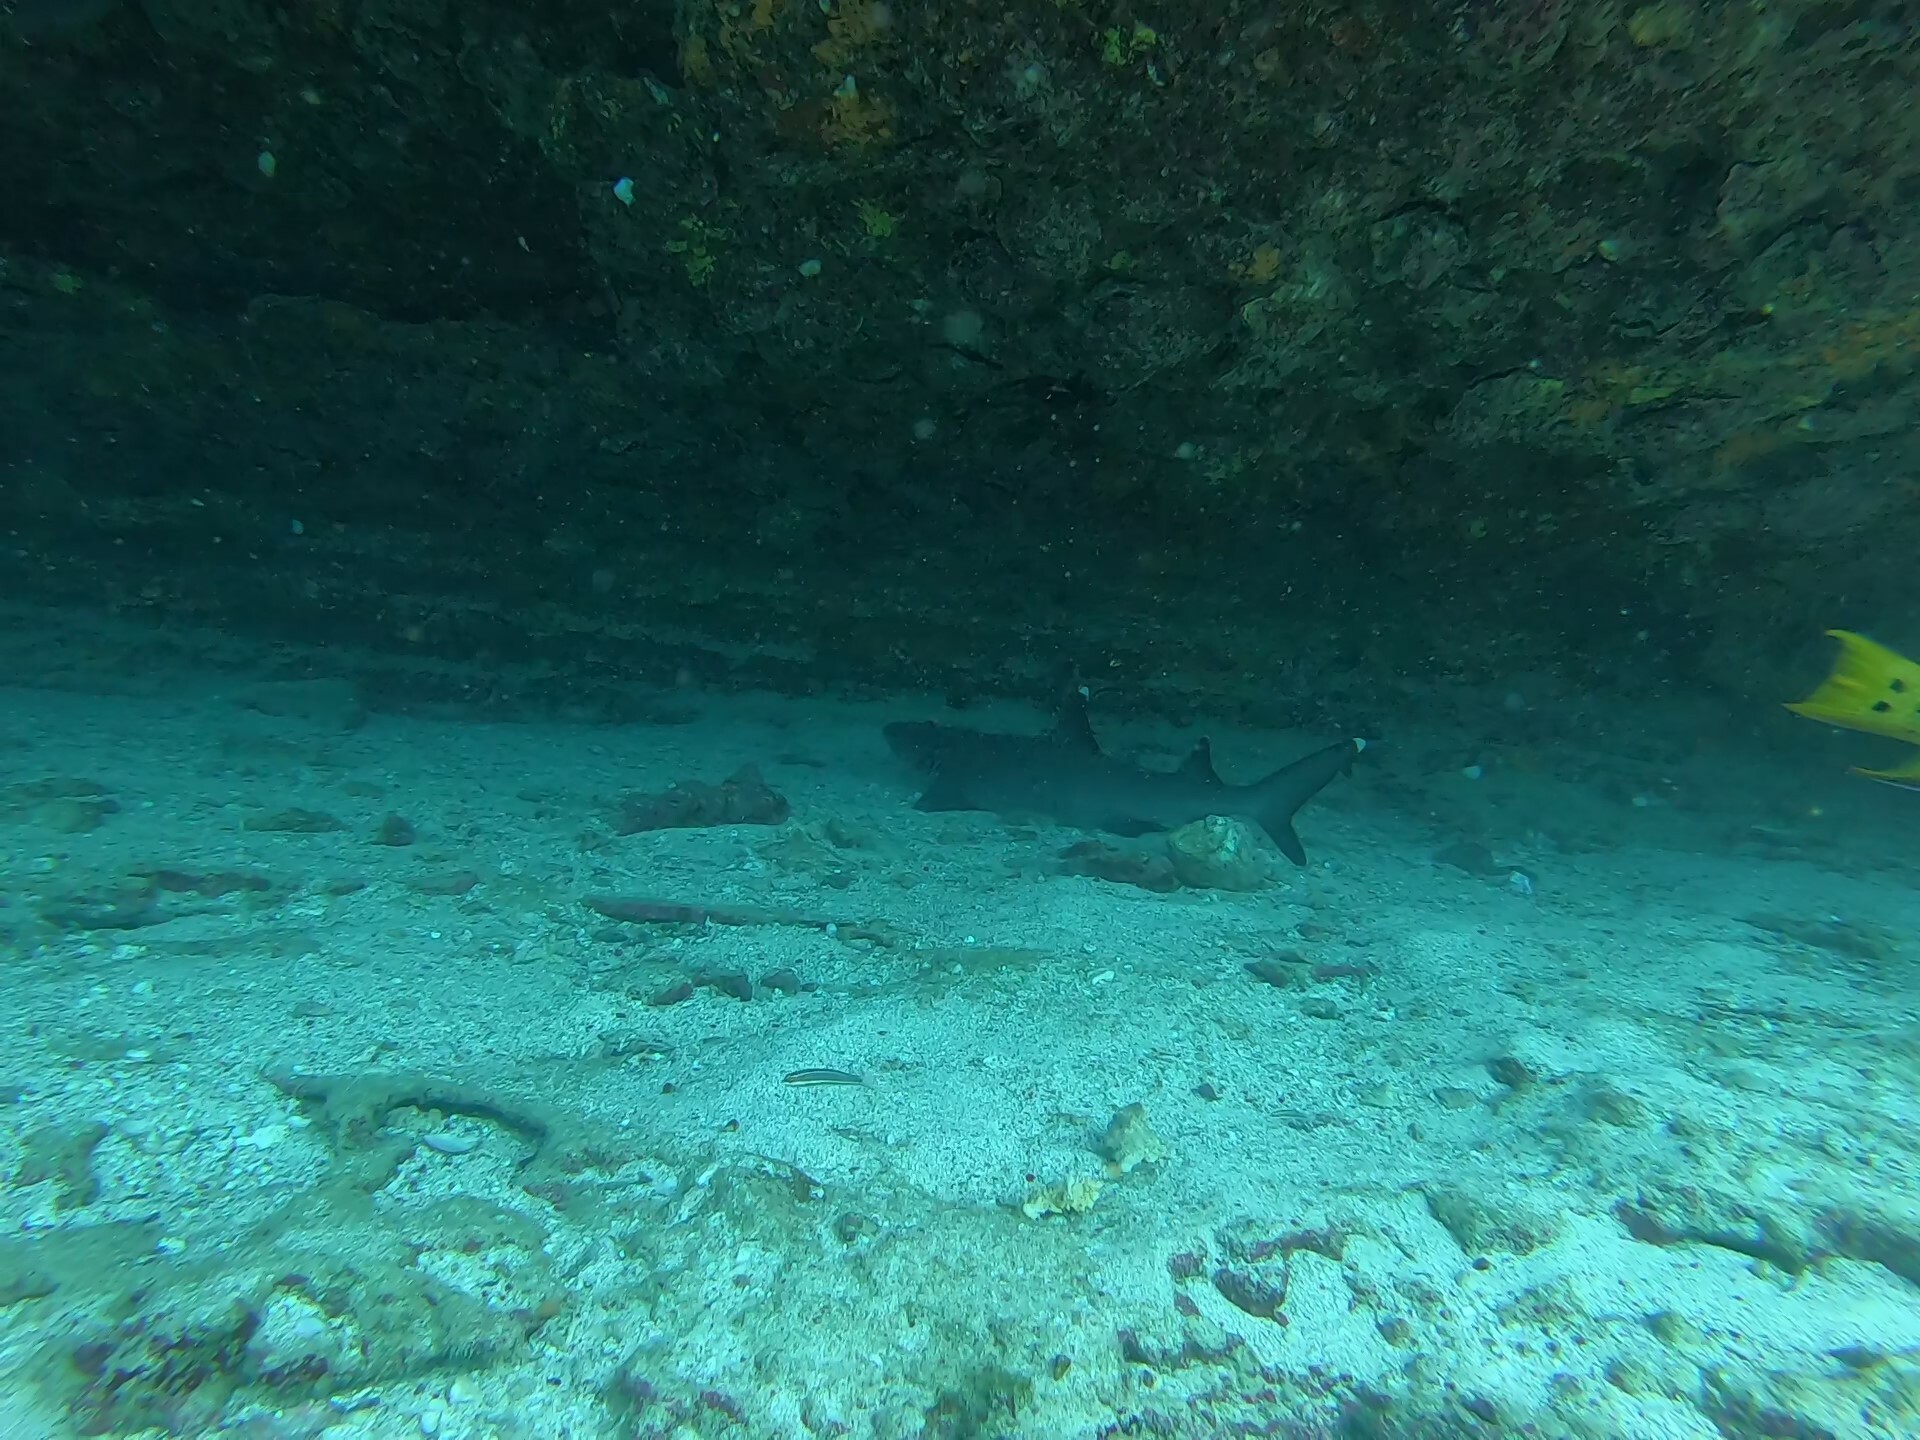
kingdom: Animalia
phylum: Chordata
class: Elasmobranchii
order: Carcharhiniformes
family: Carcharhinidae
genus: Triaenodon
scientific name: Triaenodon obesus
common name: Whitetip reef shark
